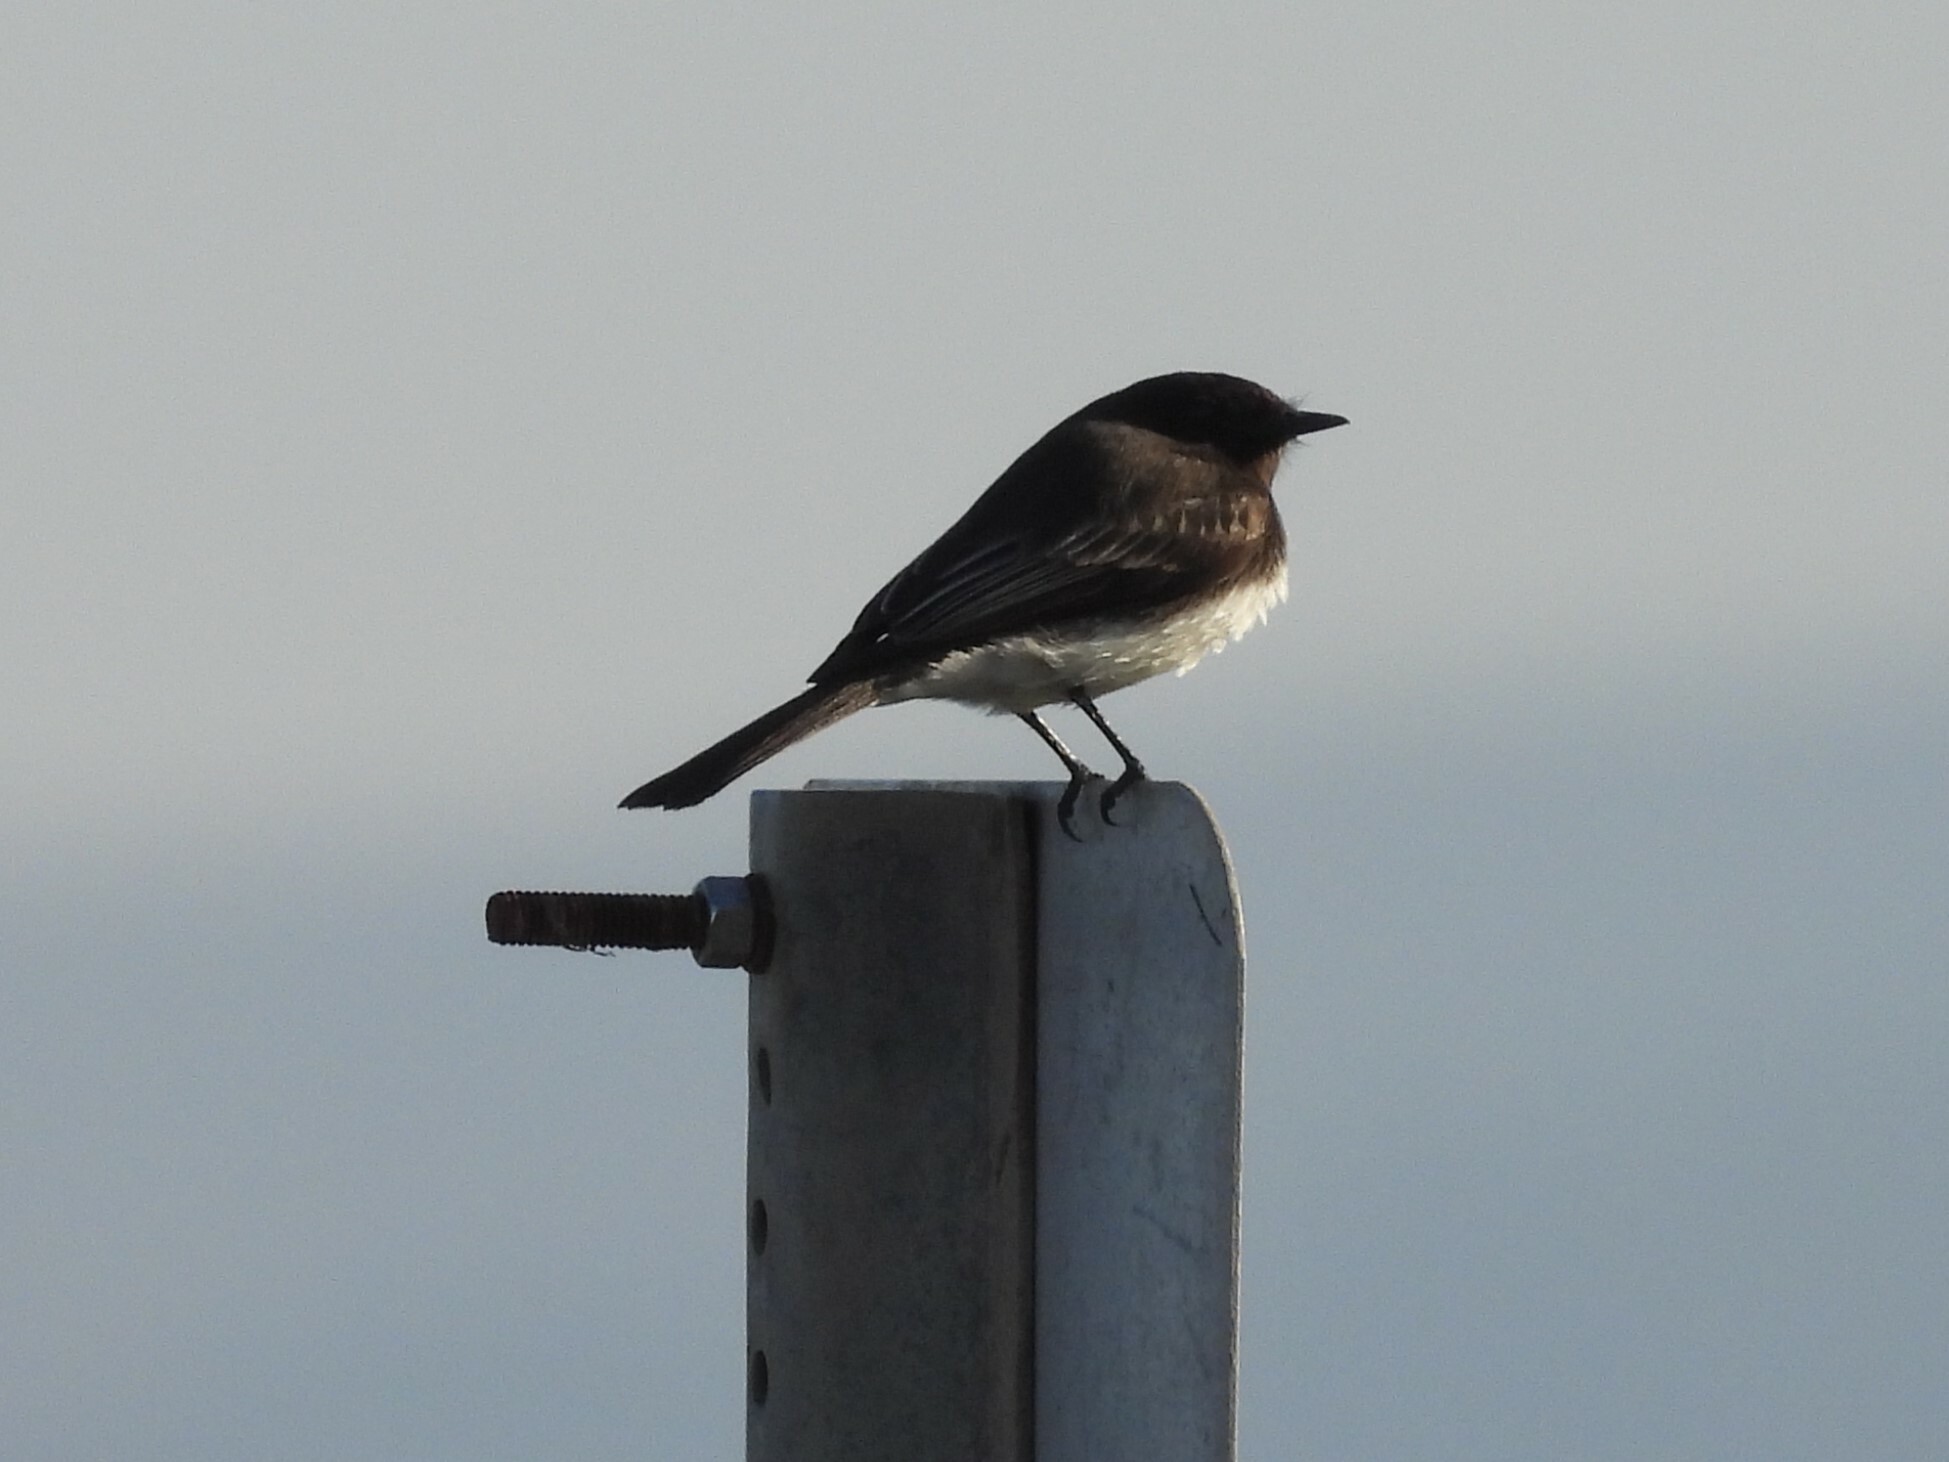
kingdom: Animalia
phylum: Chordata
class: Aves
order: Passeriformes
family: Tyrannidae
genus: Sayornis
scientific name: Sayornis nigricans
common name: Black phoebe
